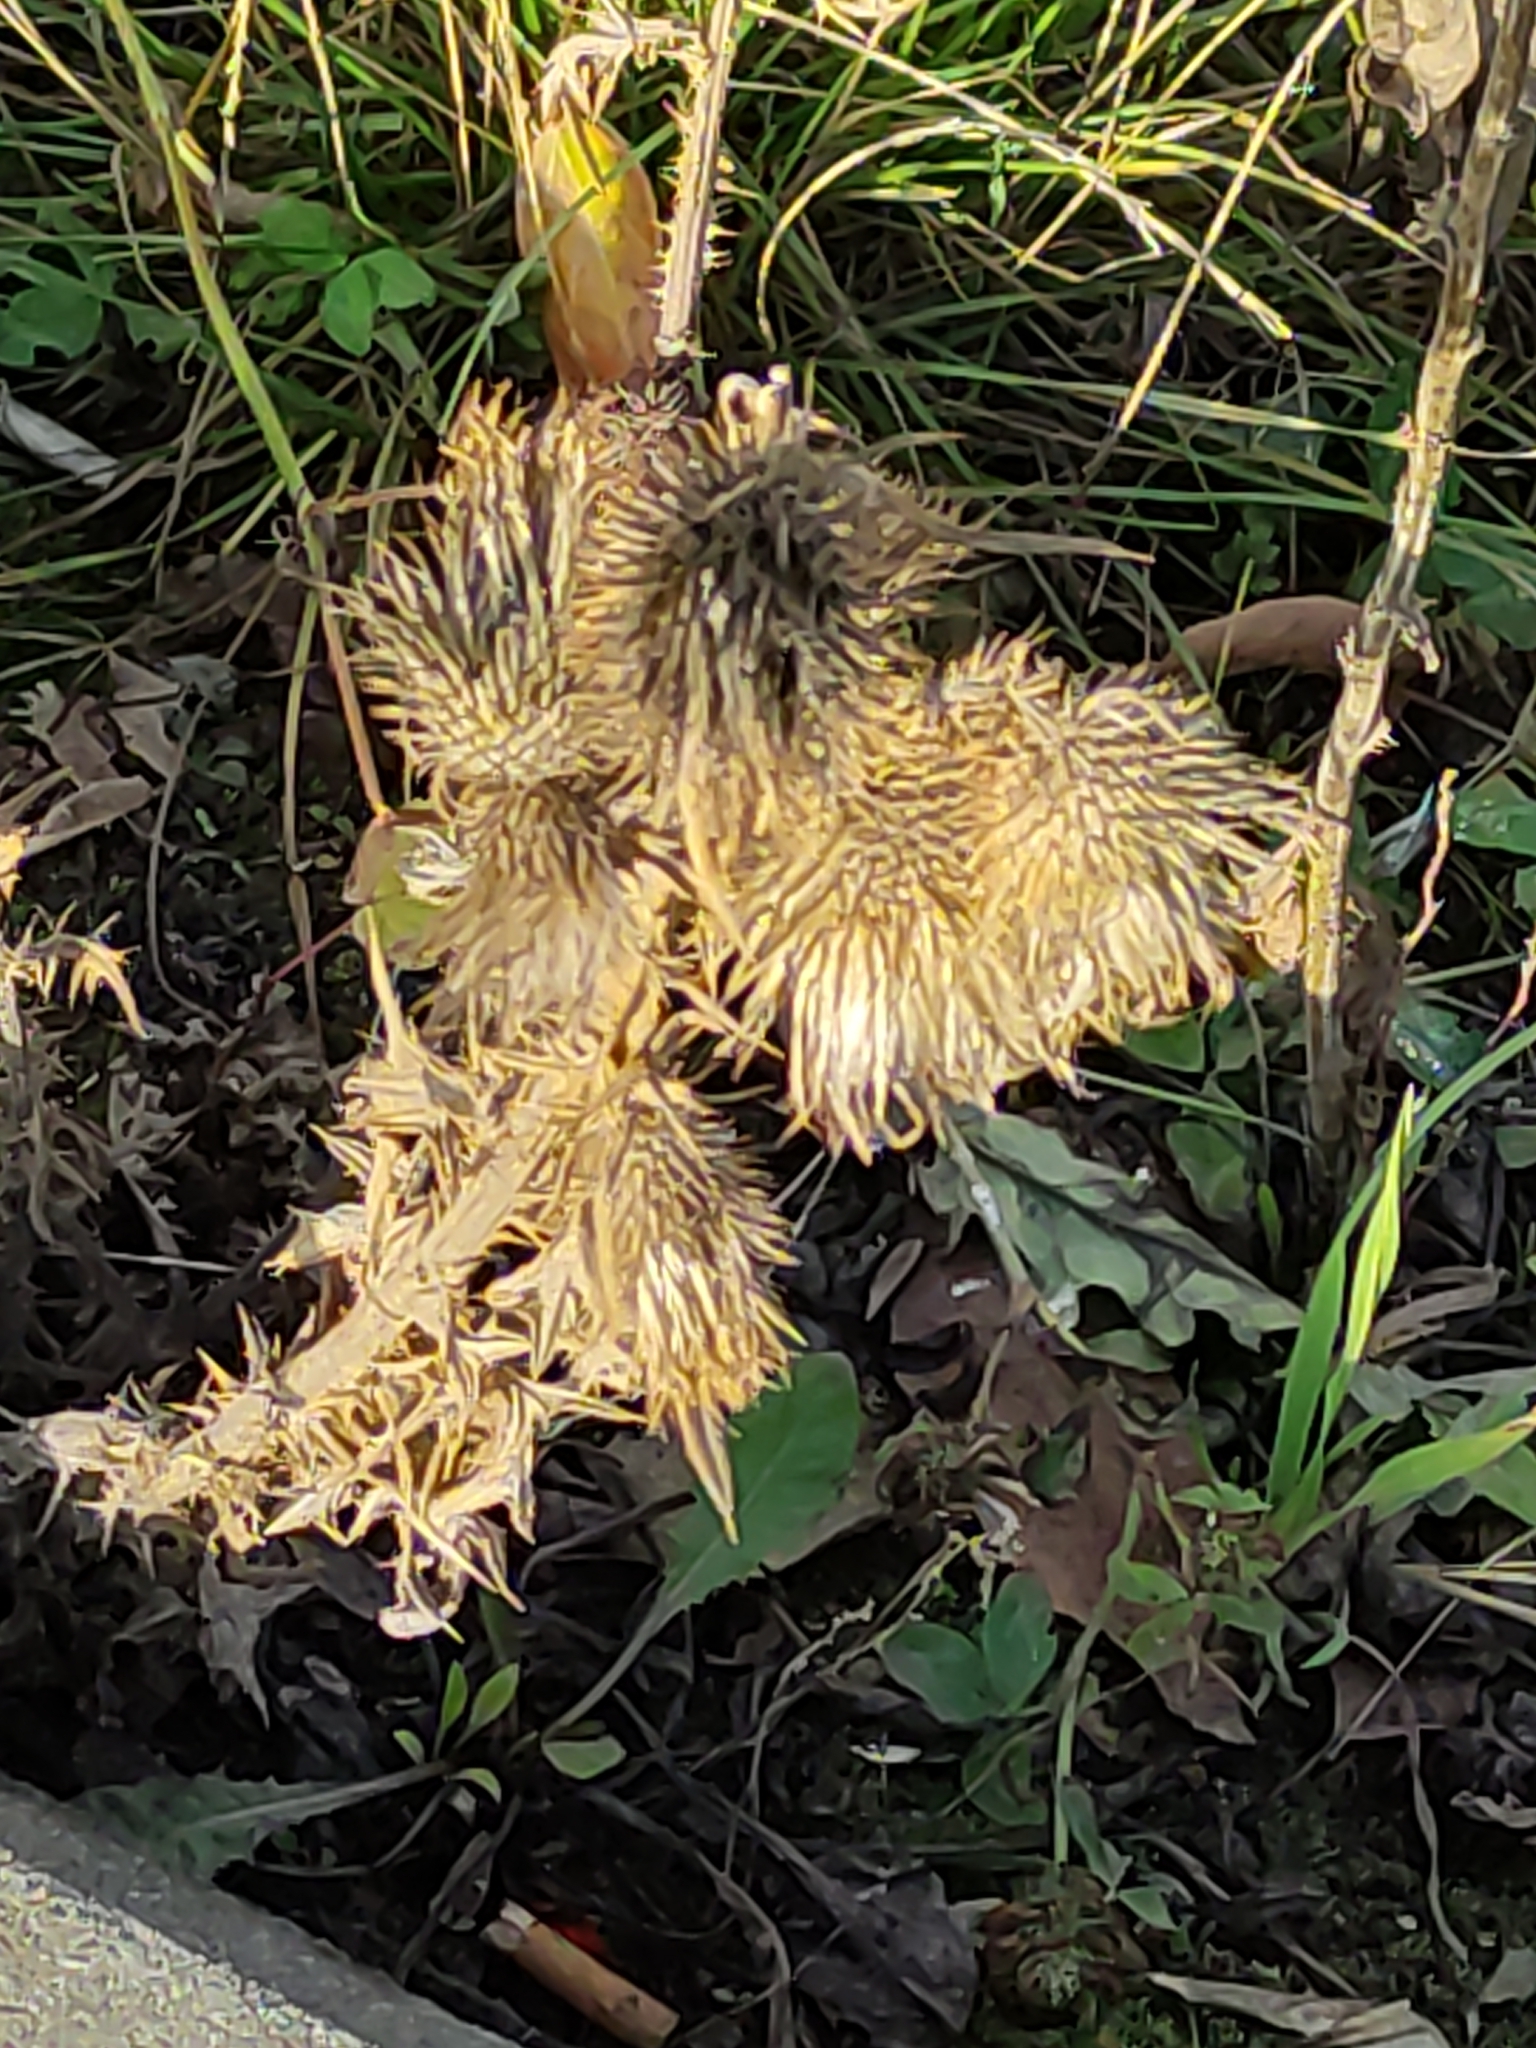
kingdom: Plantae
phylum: Tracheophyta
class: Magnoliopsida
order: Asterales
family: Asteraceae
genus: Cirsium
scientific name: Cirsium vulgare
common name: Bull thistle
